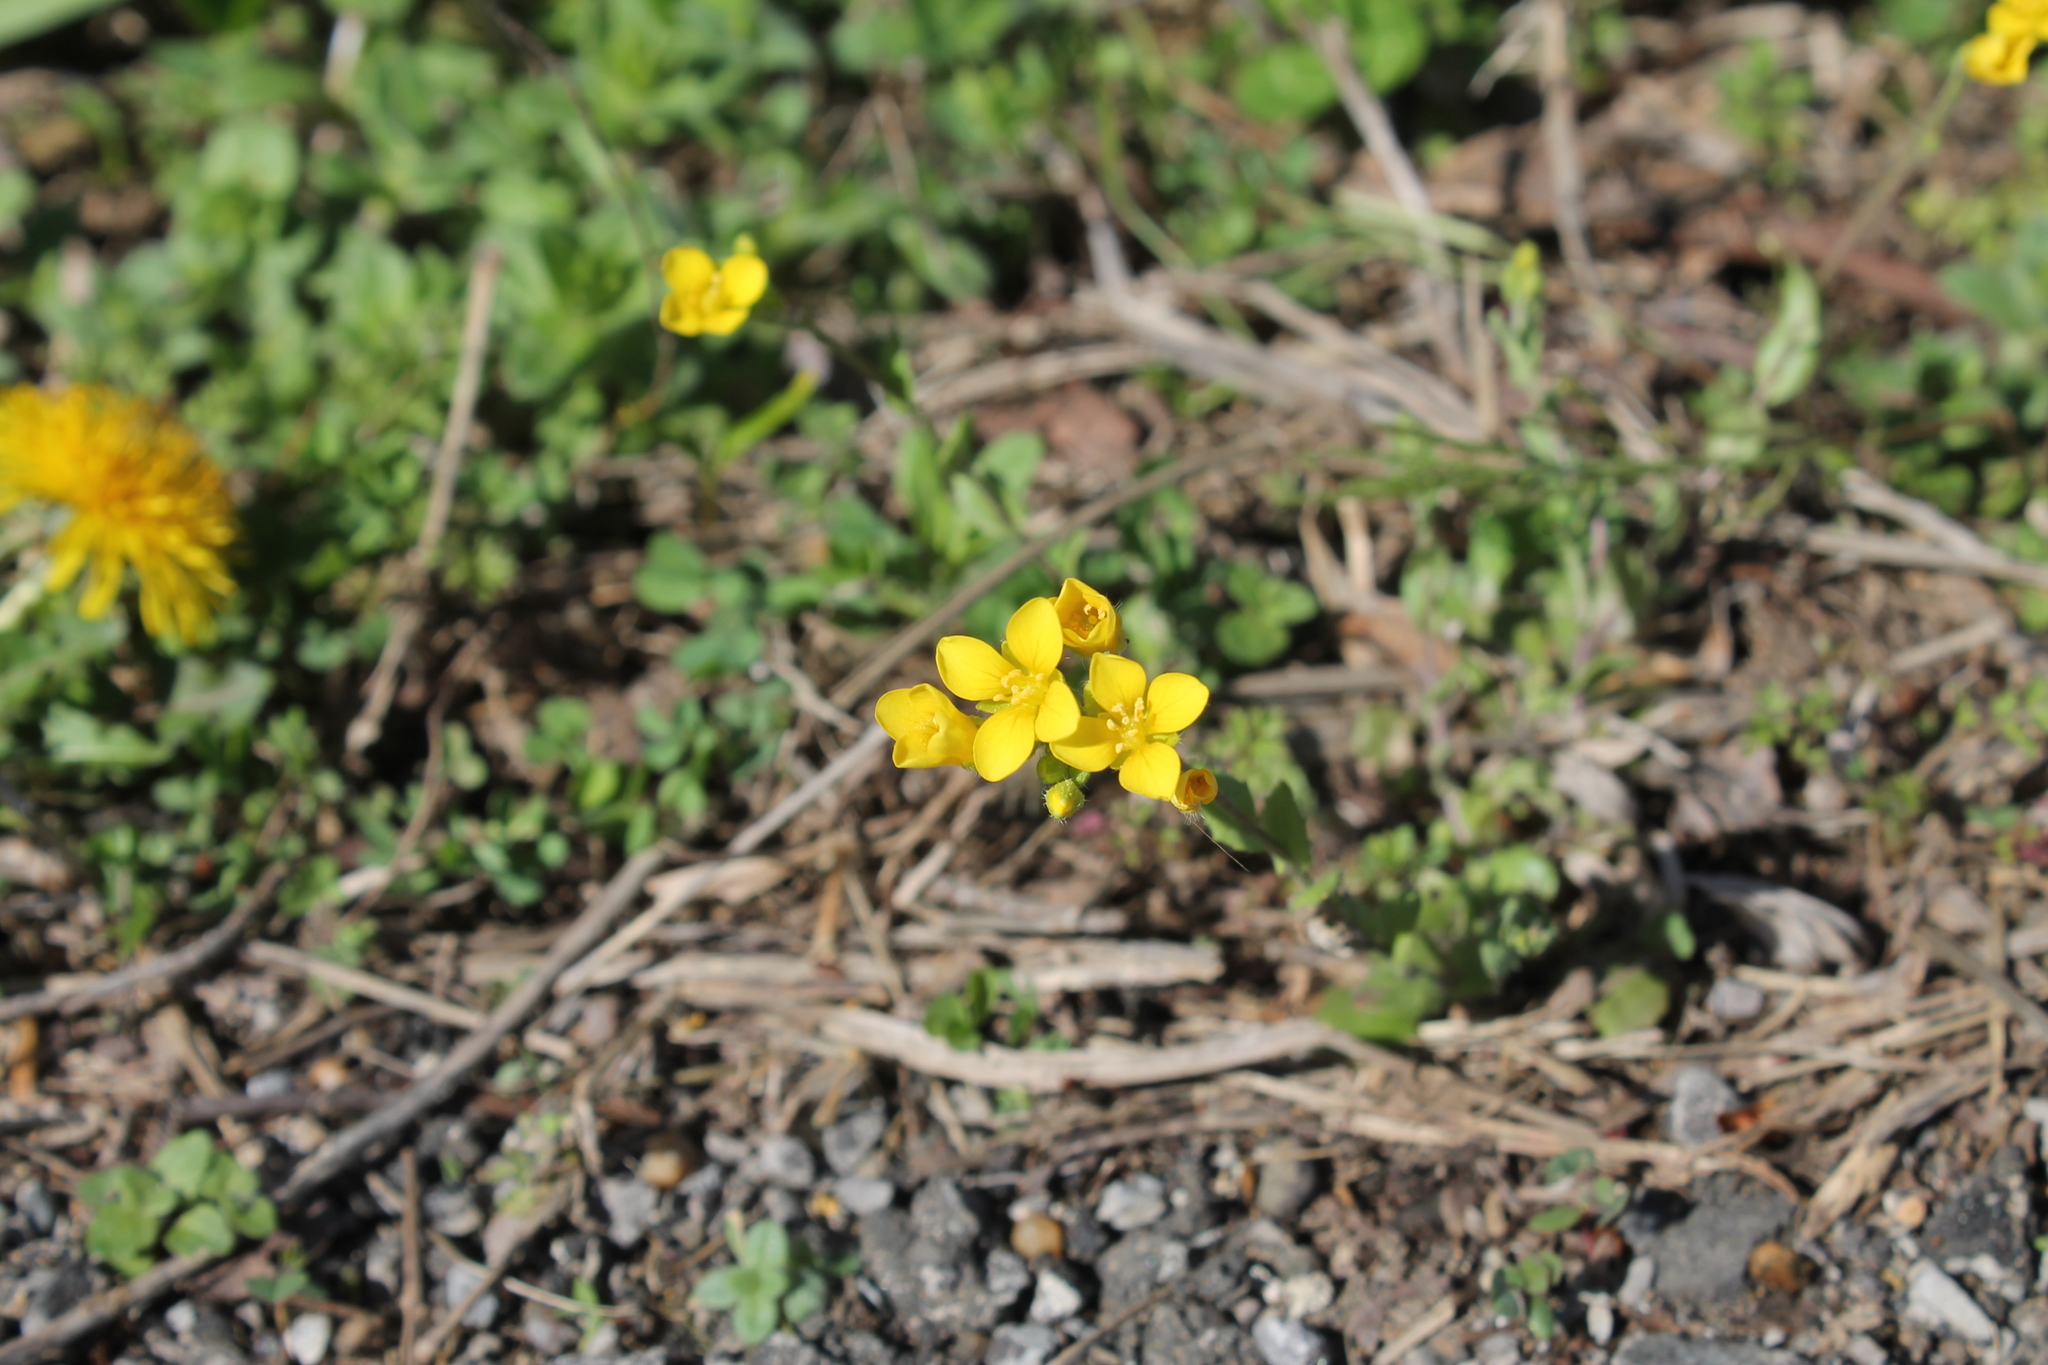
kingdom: Plantae
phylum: Tracheophyta
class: Magnoliopsida
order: Brassicales
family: Brassicaceae
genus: Paysonia
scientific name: Paysonia lescurii
